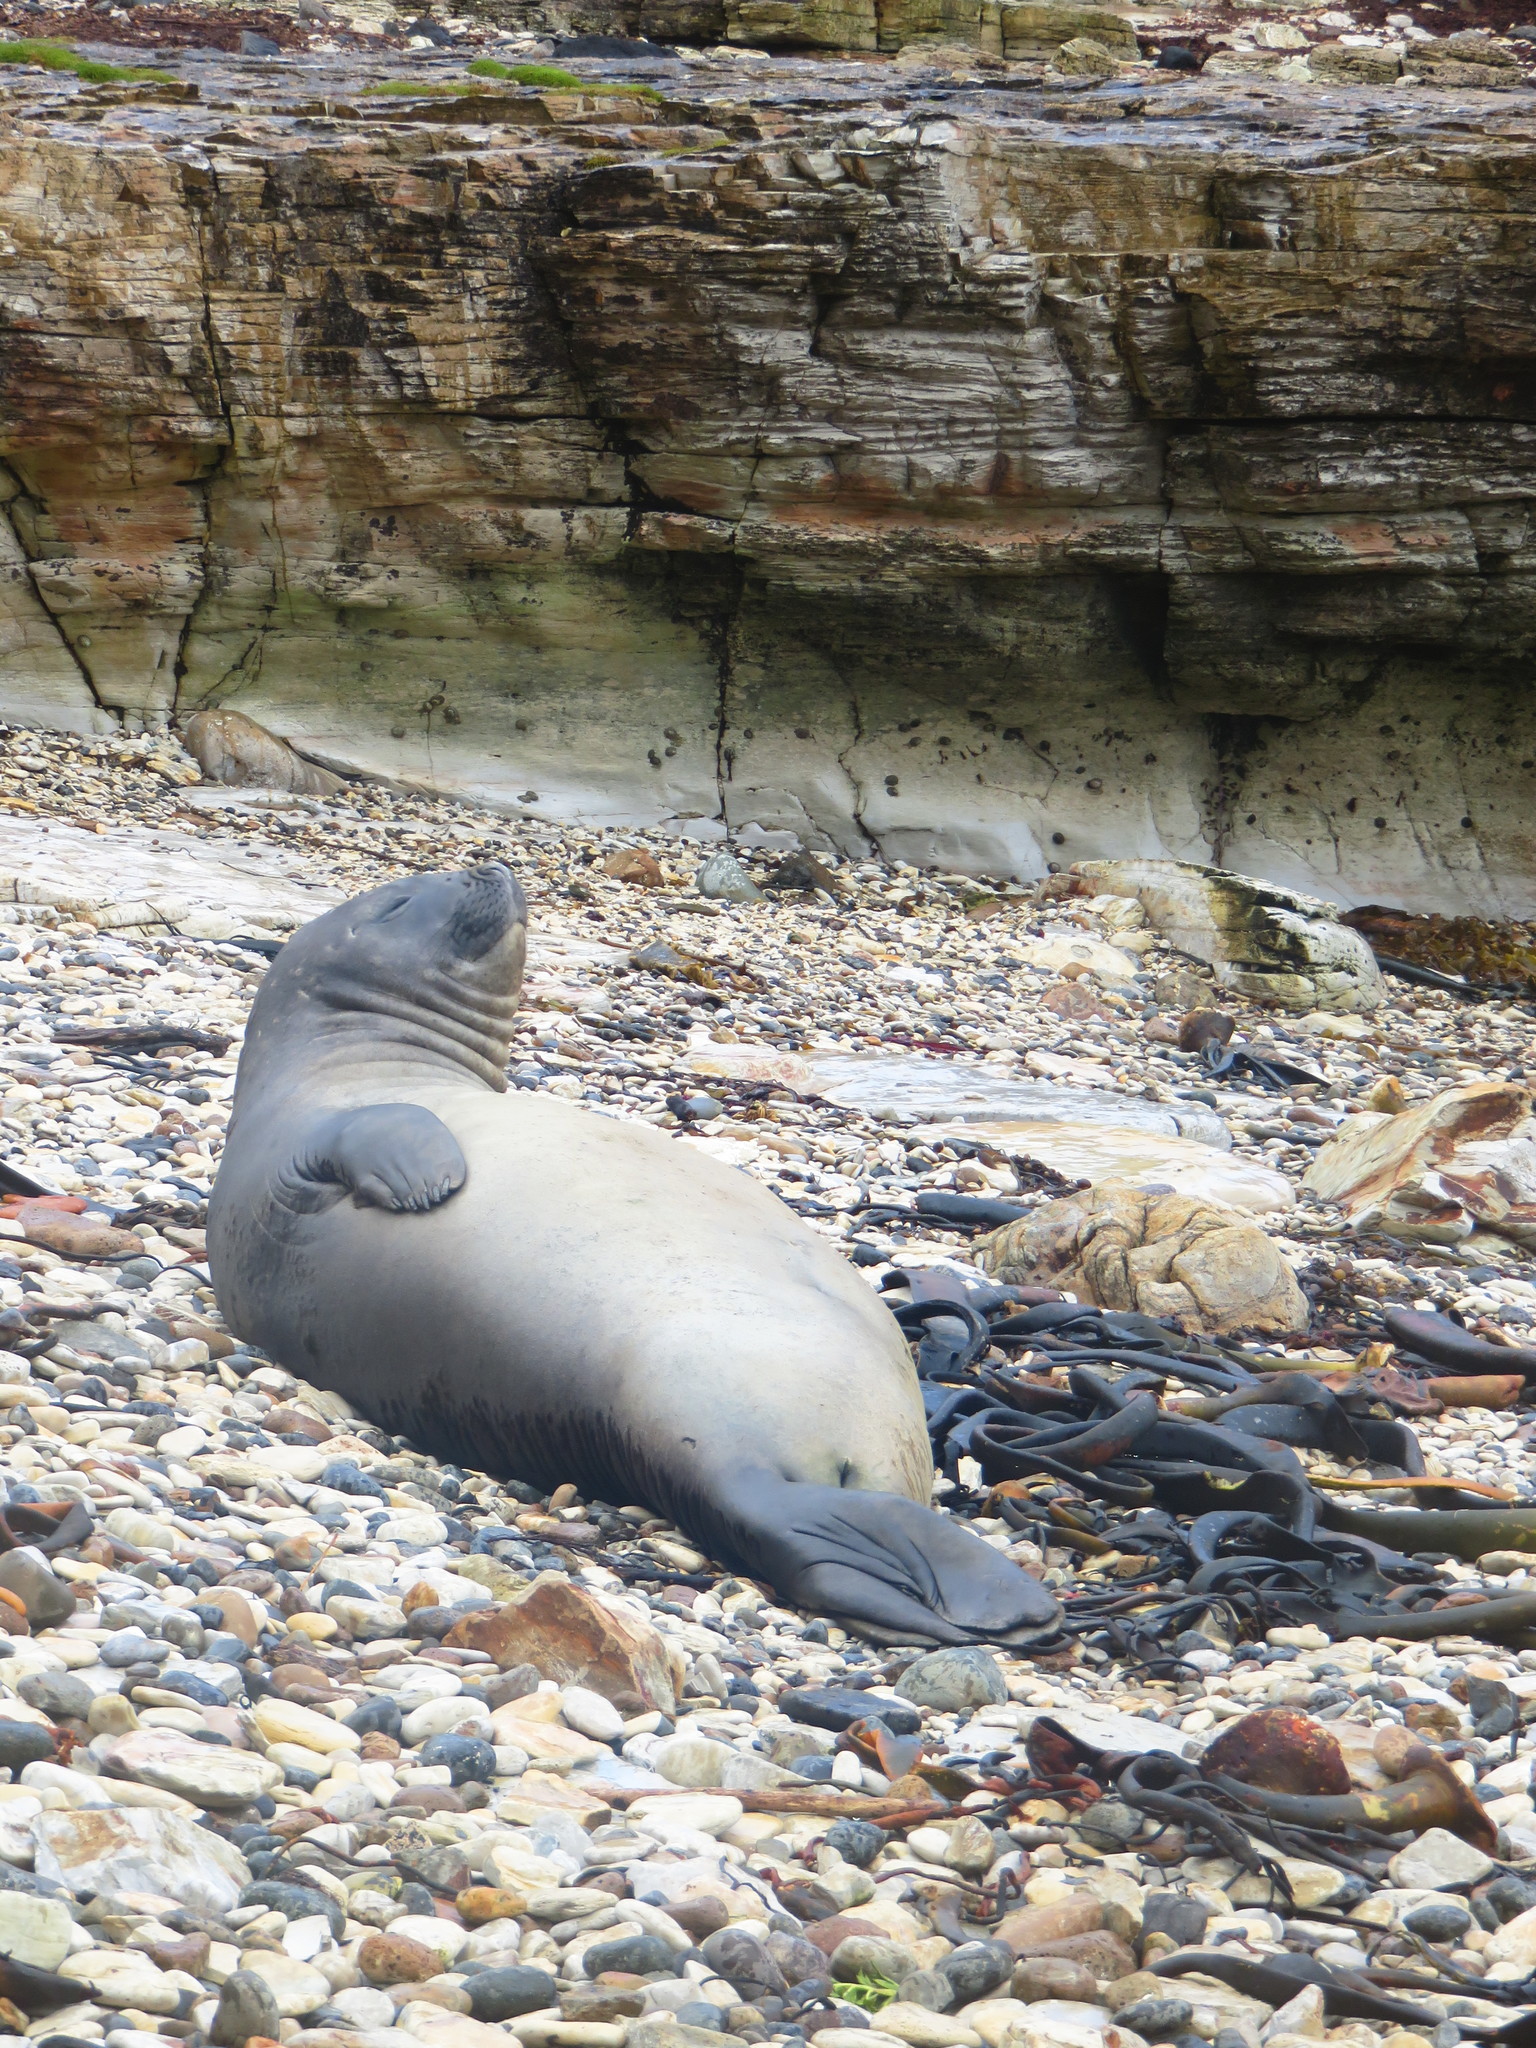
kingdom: Animalia
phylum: Chordata
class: Mammalia
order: Carnivora
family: Phocidae
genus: Mirounga
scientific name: Mirounga leonina
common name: Southern elephant seal
